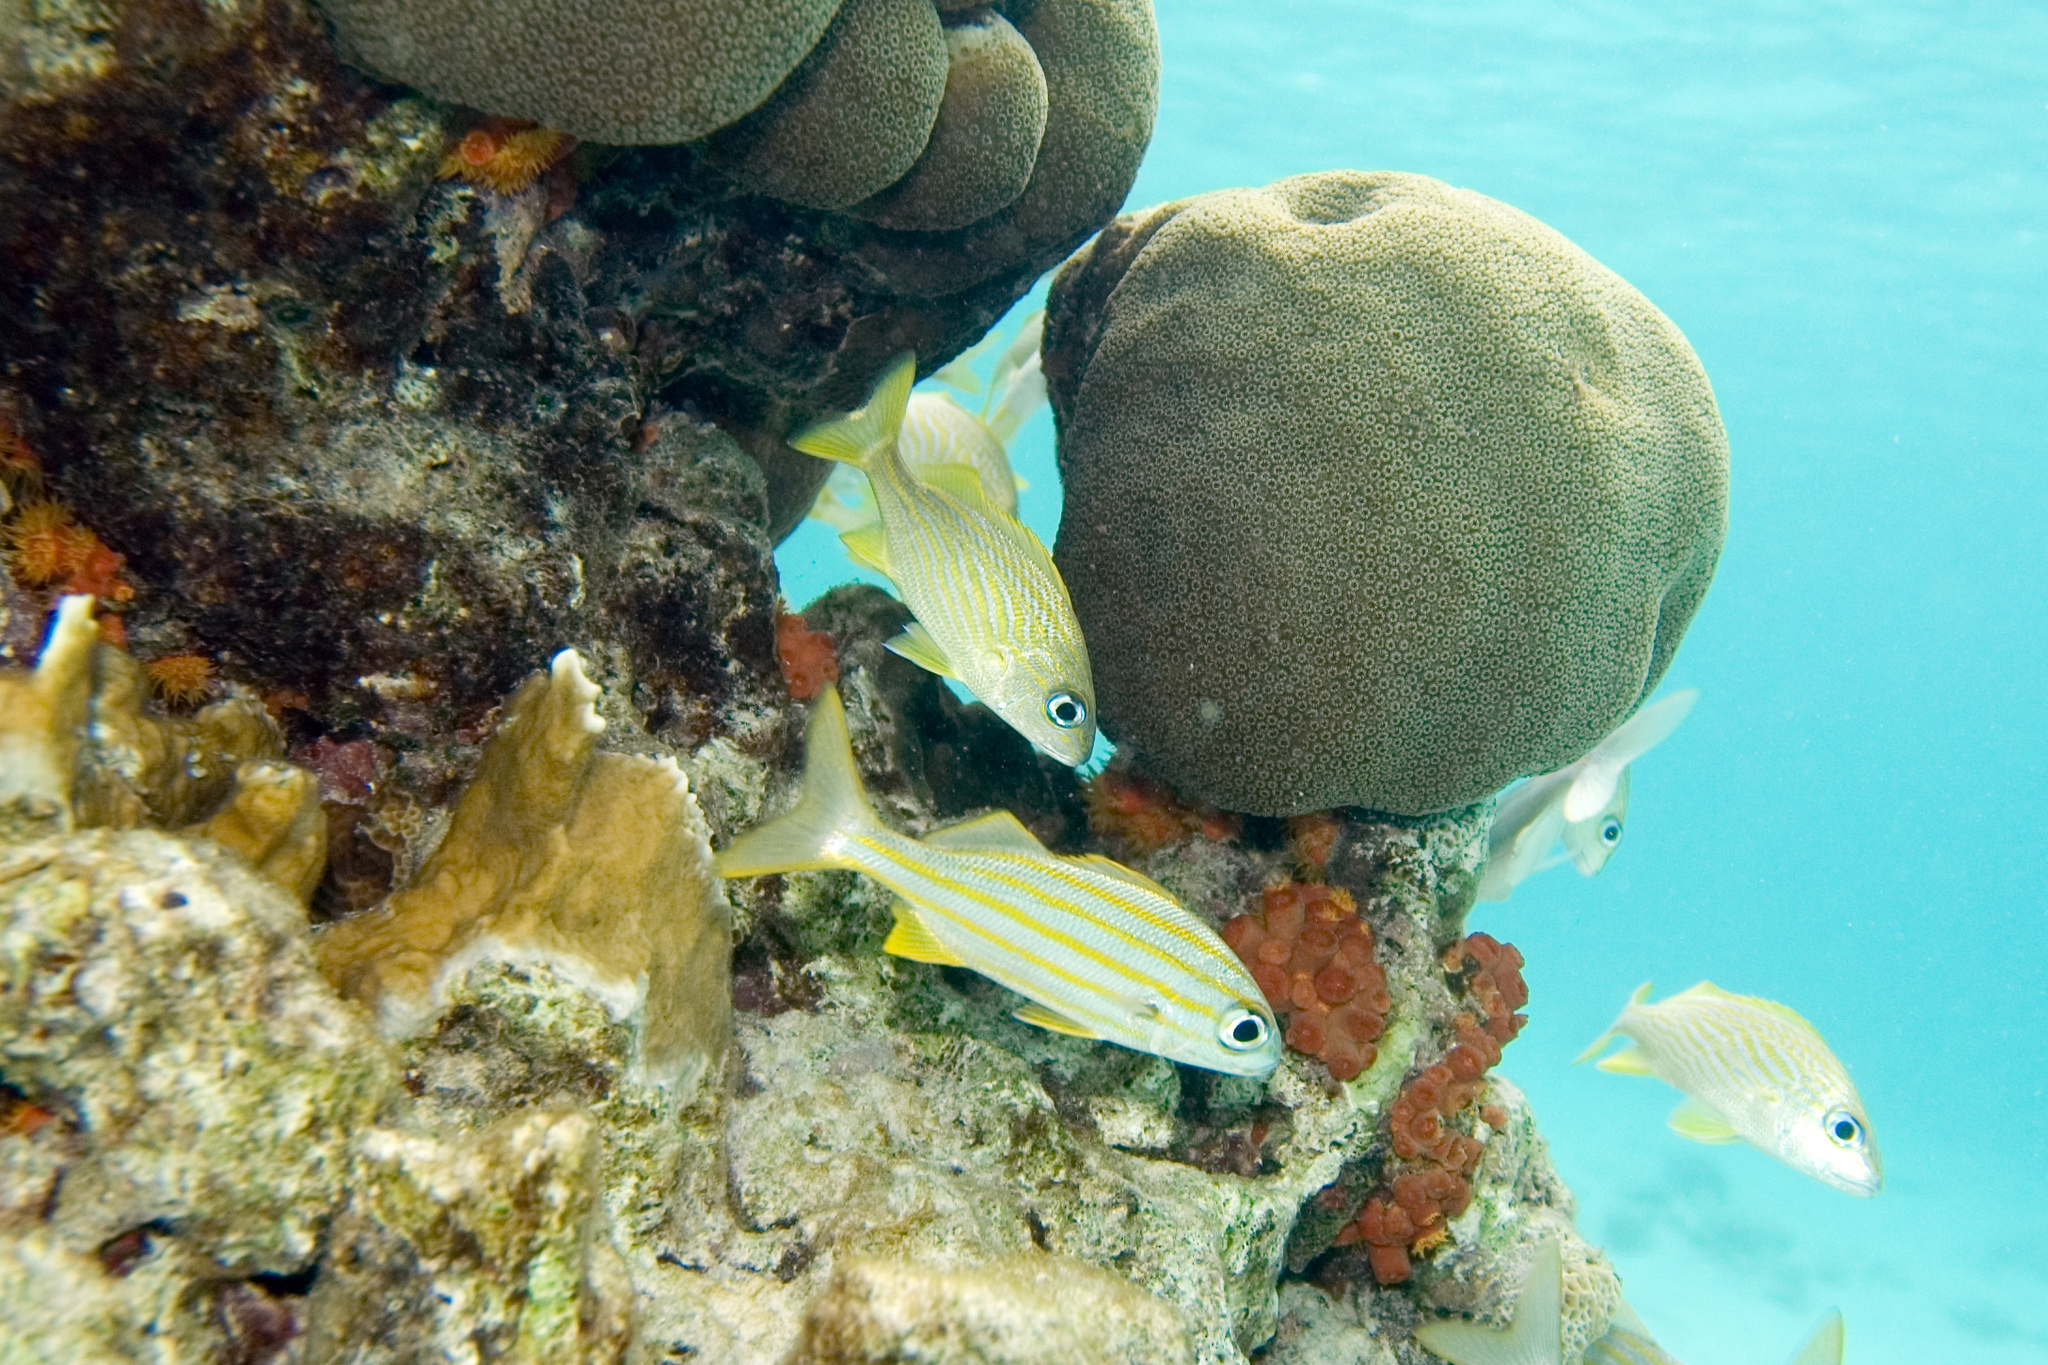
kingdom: Animalia
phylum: Chordata
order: Perciformes
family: Haemulidae
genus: Haemulon
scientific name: Haemulon flavolineatum
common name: French grunt
